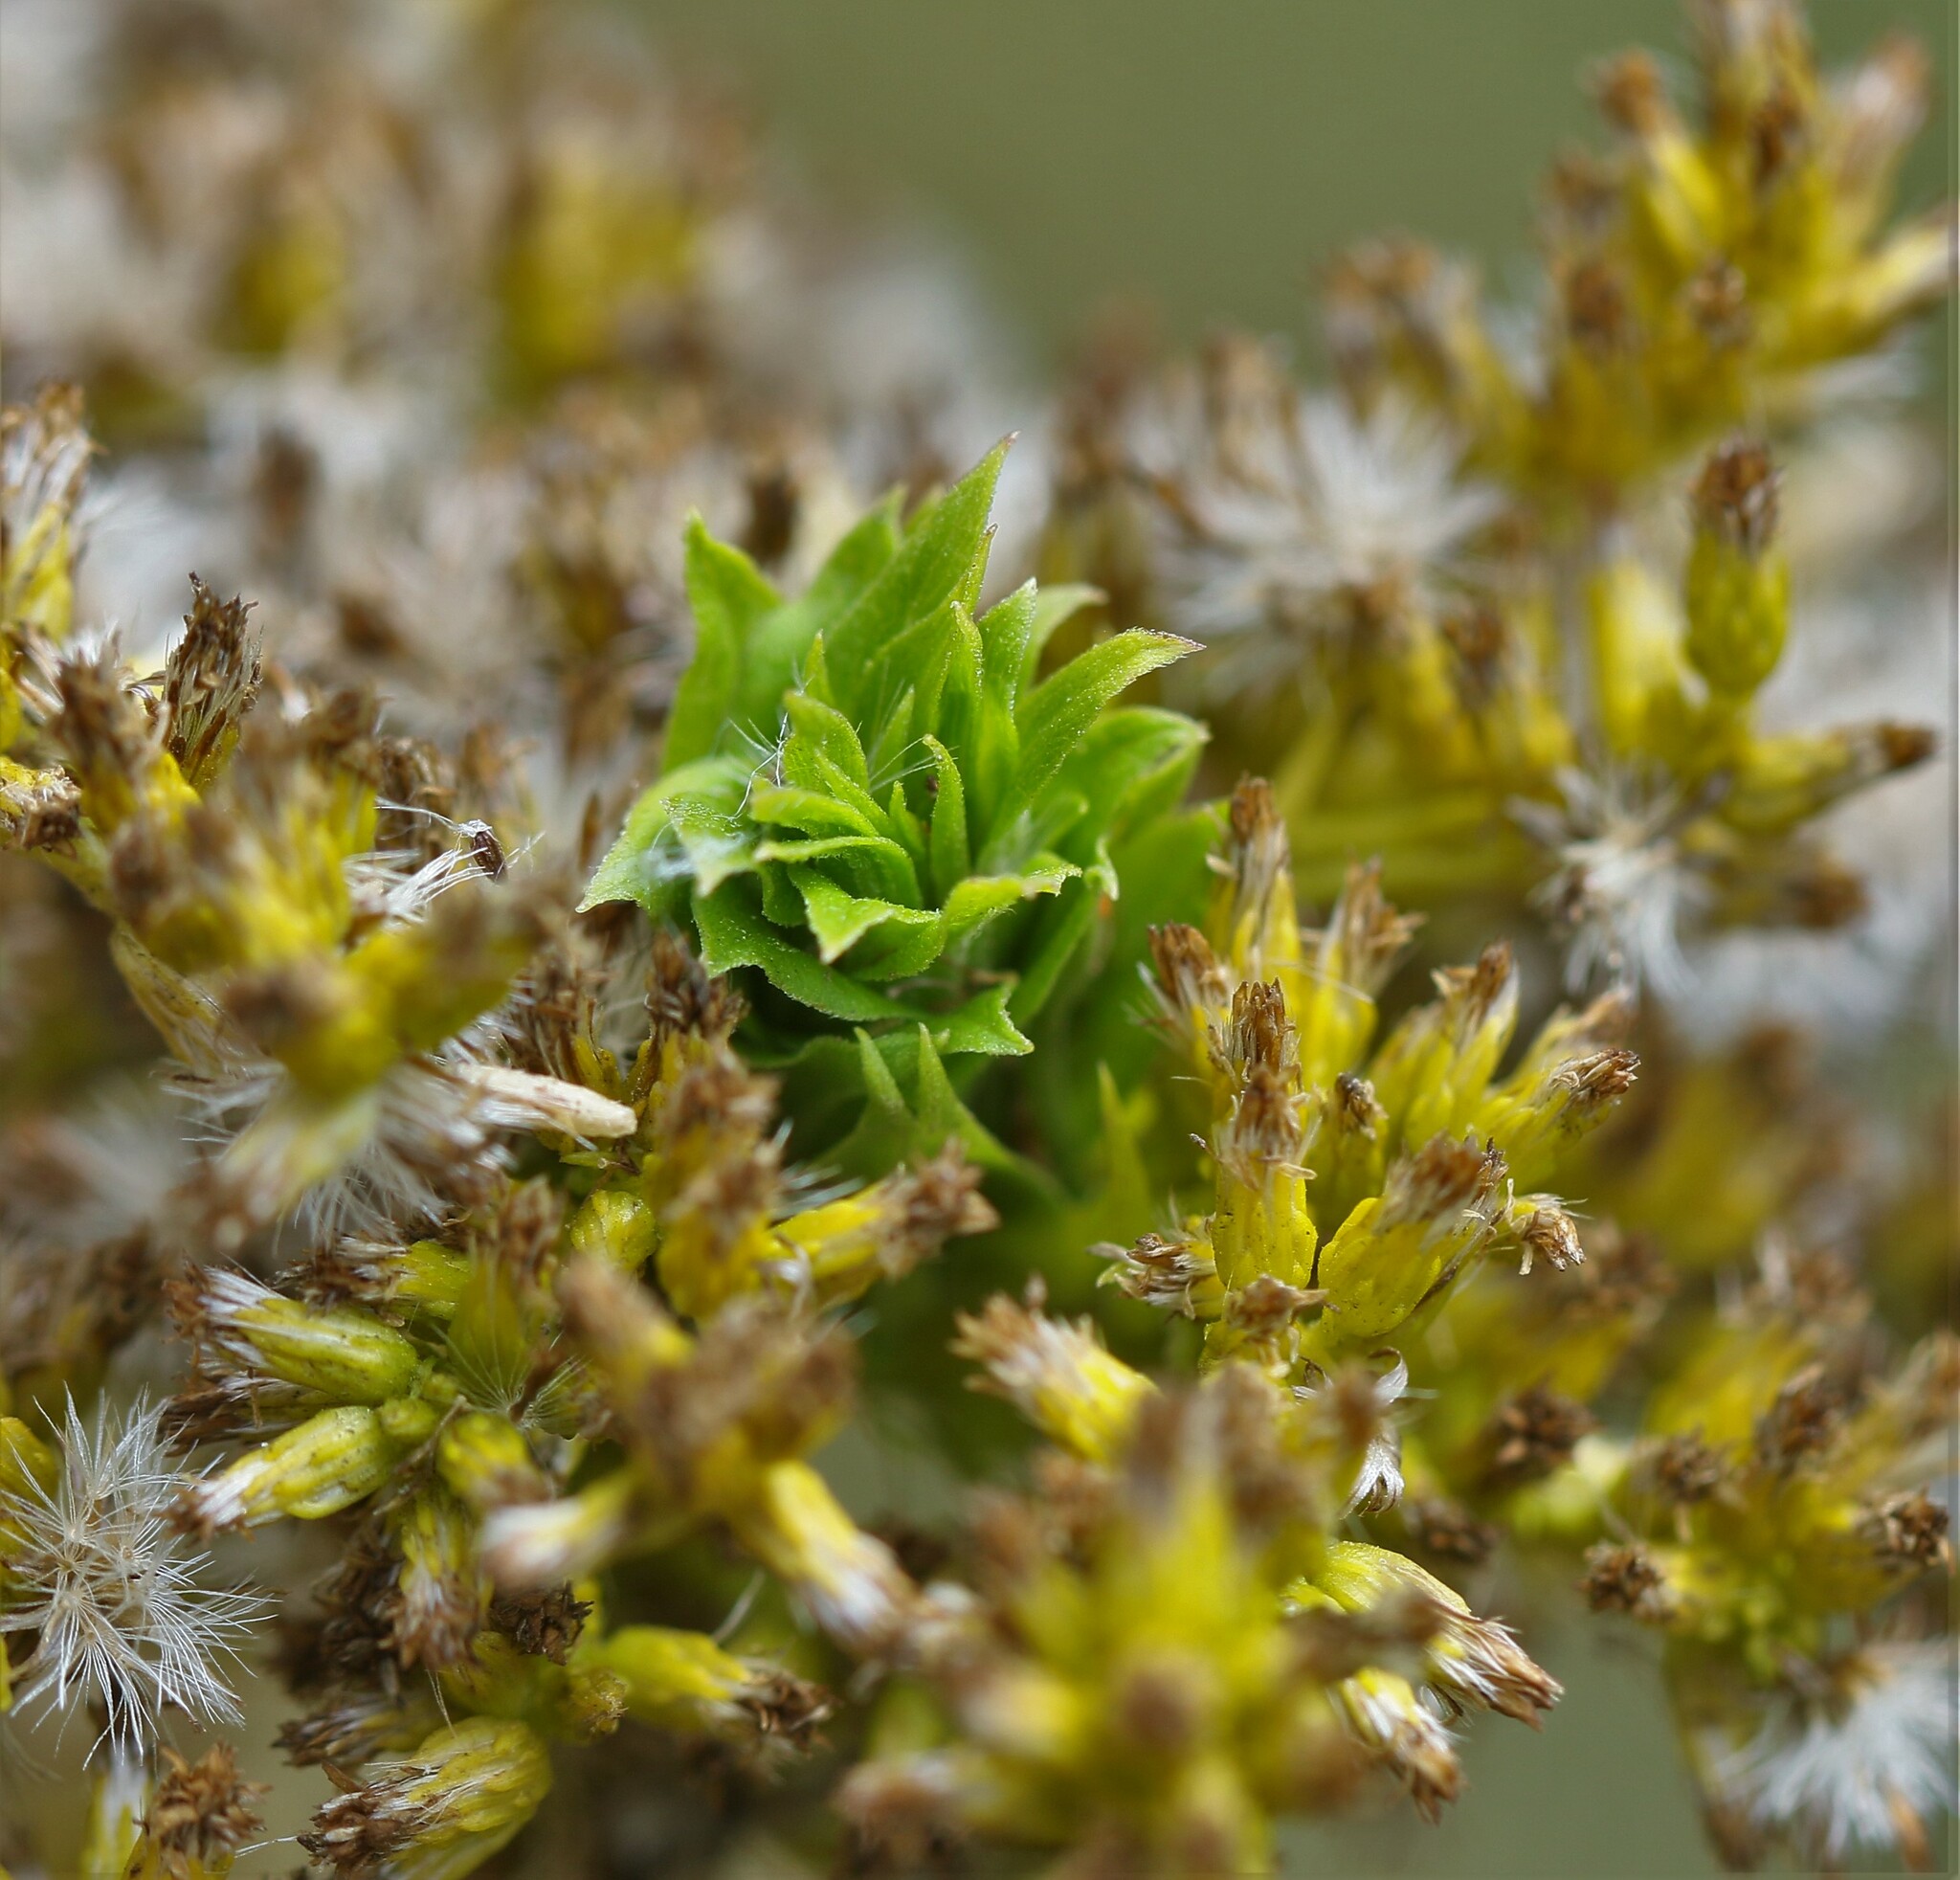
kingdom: Animalia
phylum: Arthropoda
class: Insecta
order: Diptera
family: Cecidomyiidae
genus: Rhopalomyia
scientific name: Rhopalomyia solidaginis
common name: Goldenrod bunch gall midge
